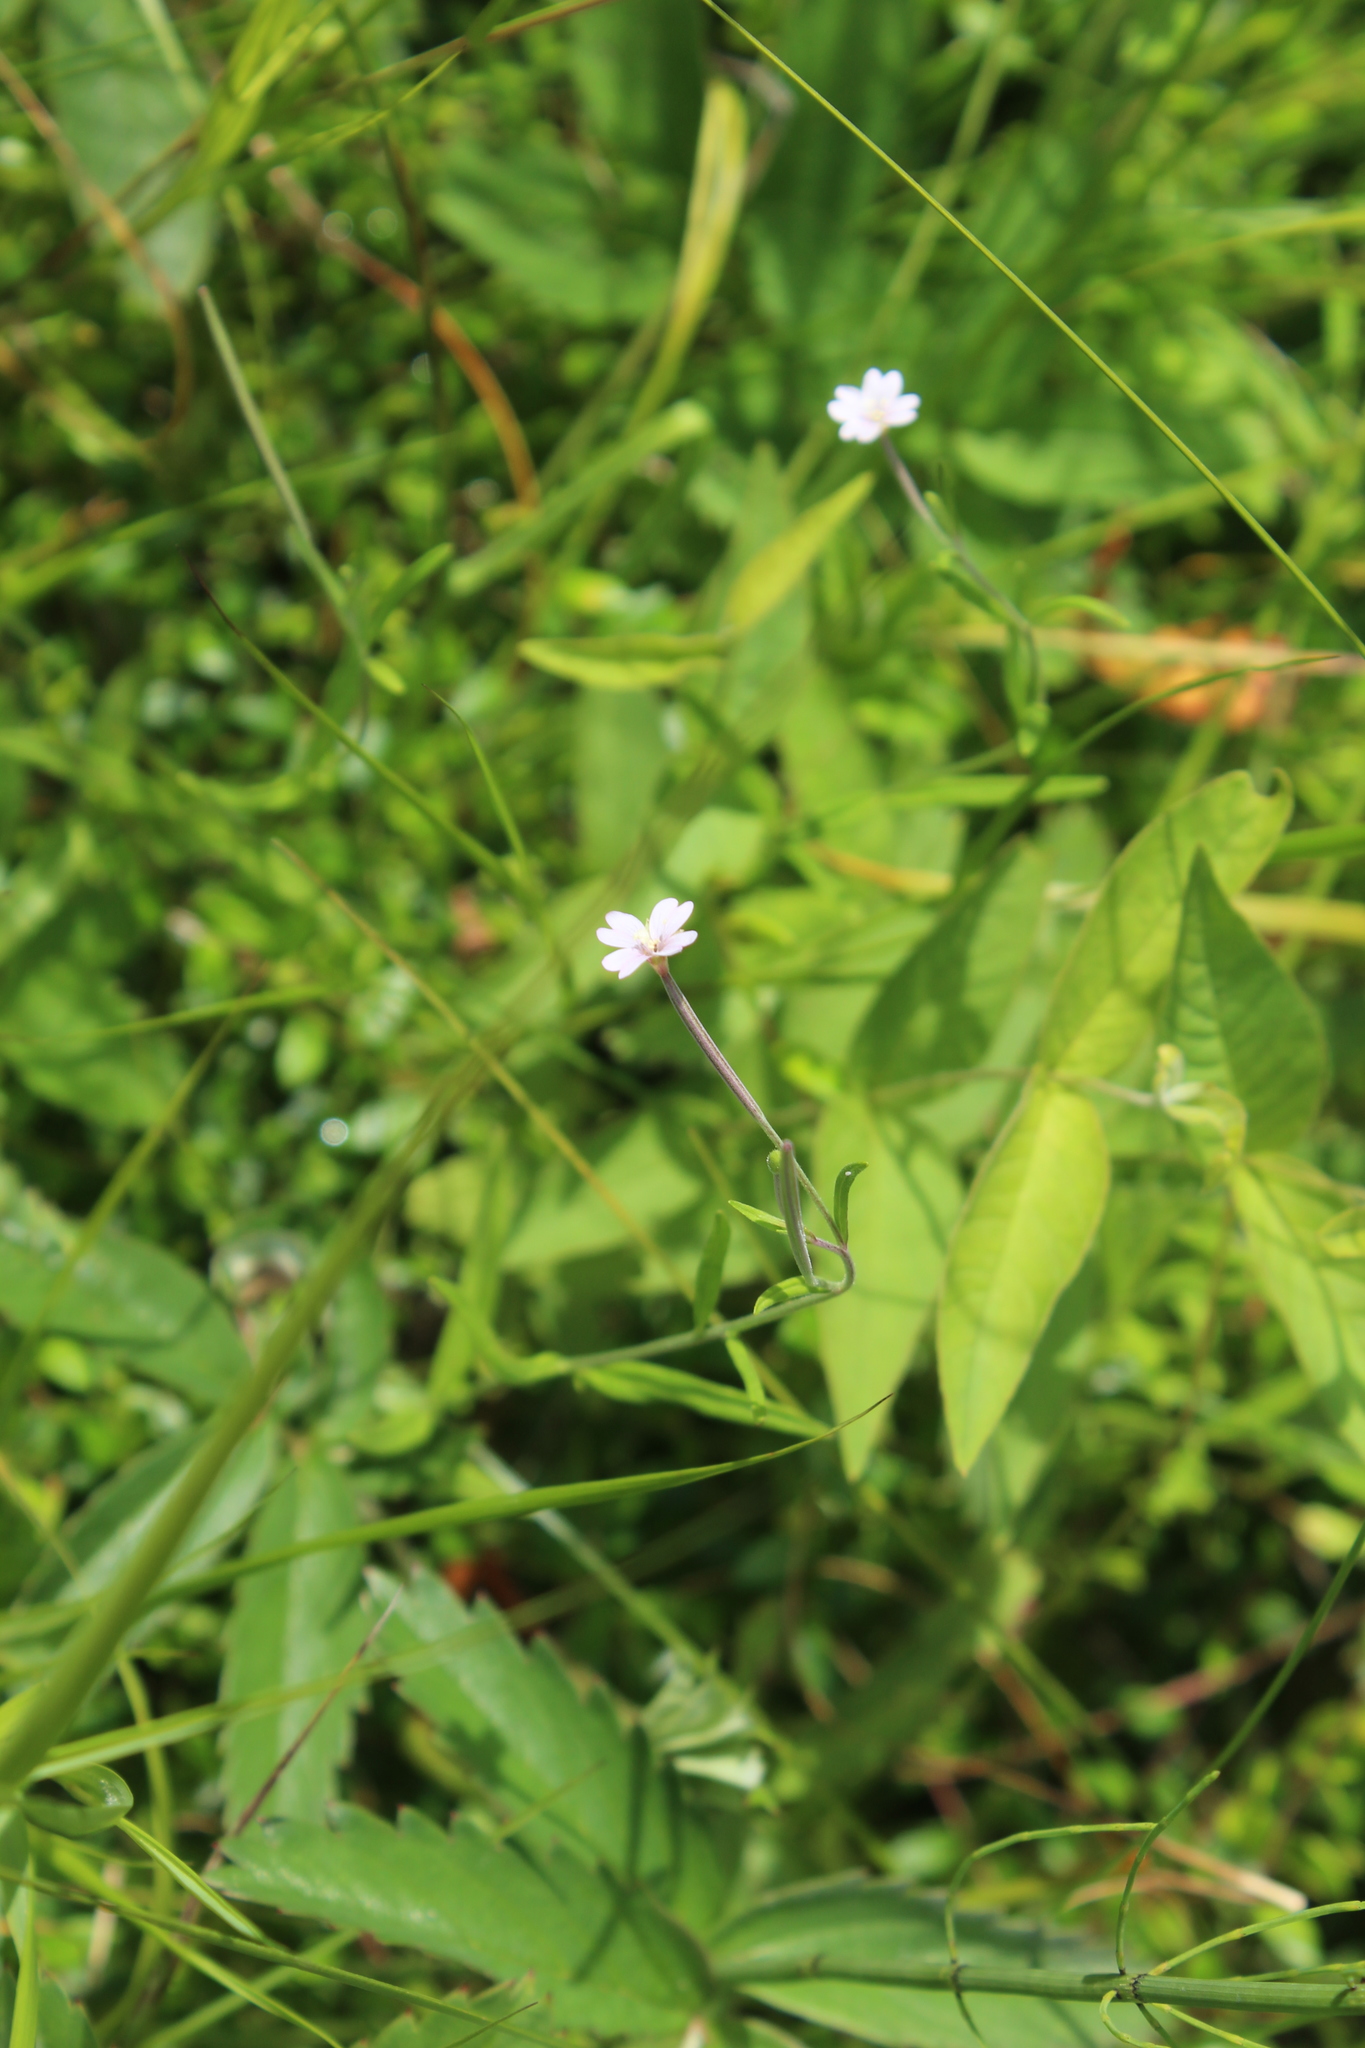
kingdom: Plantae
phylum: Tracheophyta
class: Magnoliopsida
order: Myrtales
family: Onagraceae
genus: Epilobium
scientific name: Epilobium palustre
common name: Marsh willowherb
